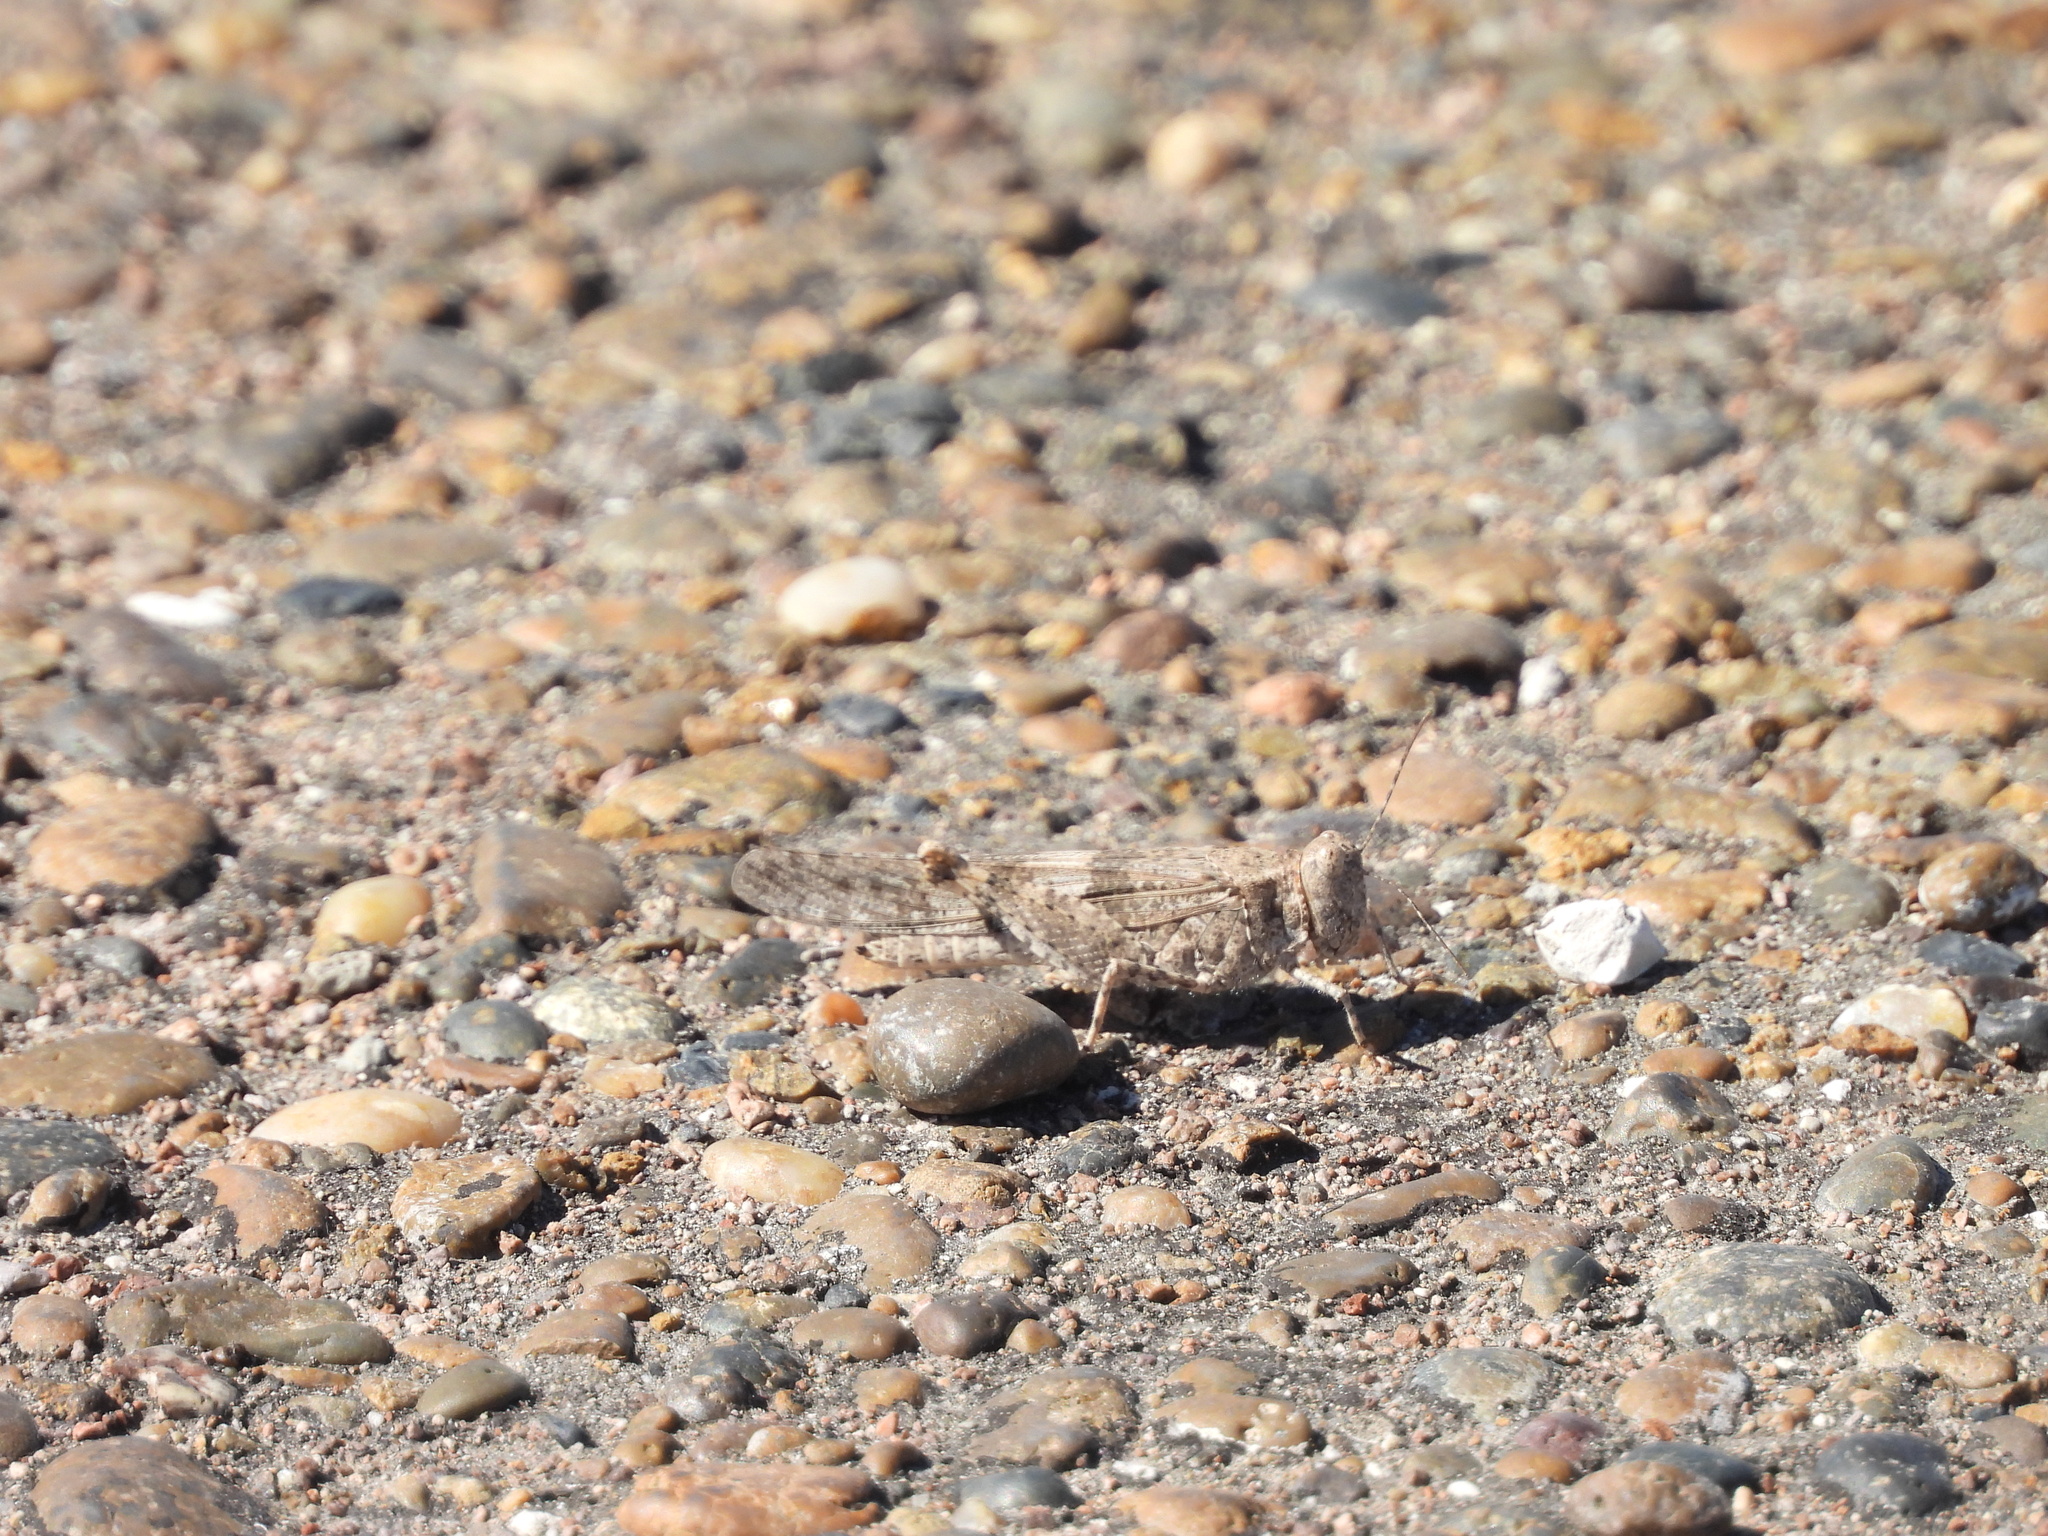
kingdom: Animalia
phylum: Arthropoda
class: Insecta
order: Orthoptera
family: Acrididae
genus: Trimerotropis
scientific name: Trimerotropis pallidipennis
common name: Pallid-winged grasshopper
